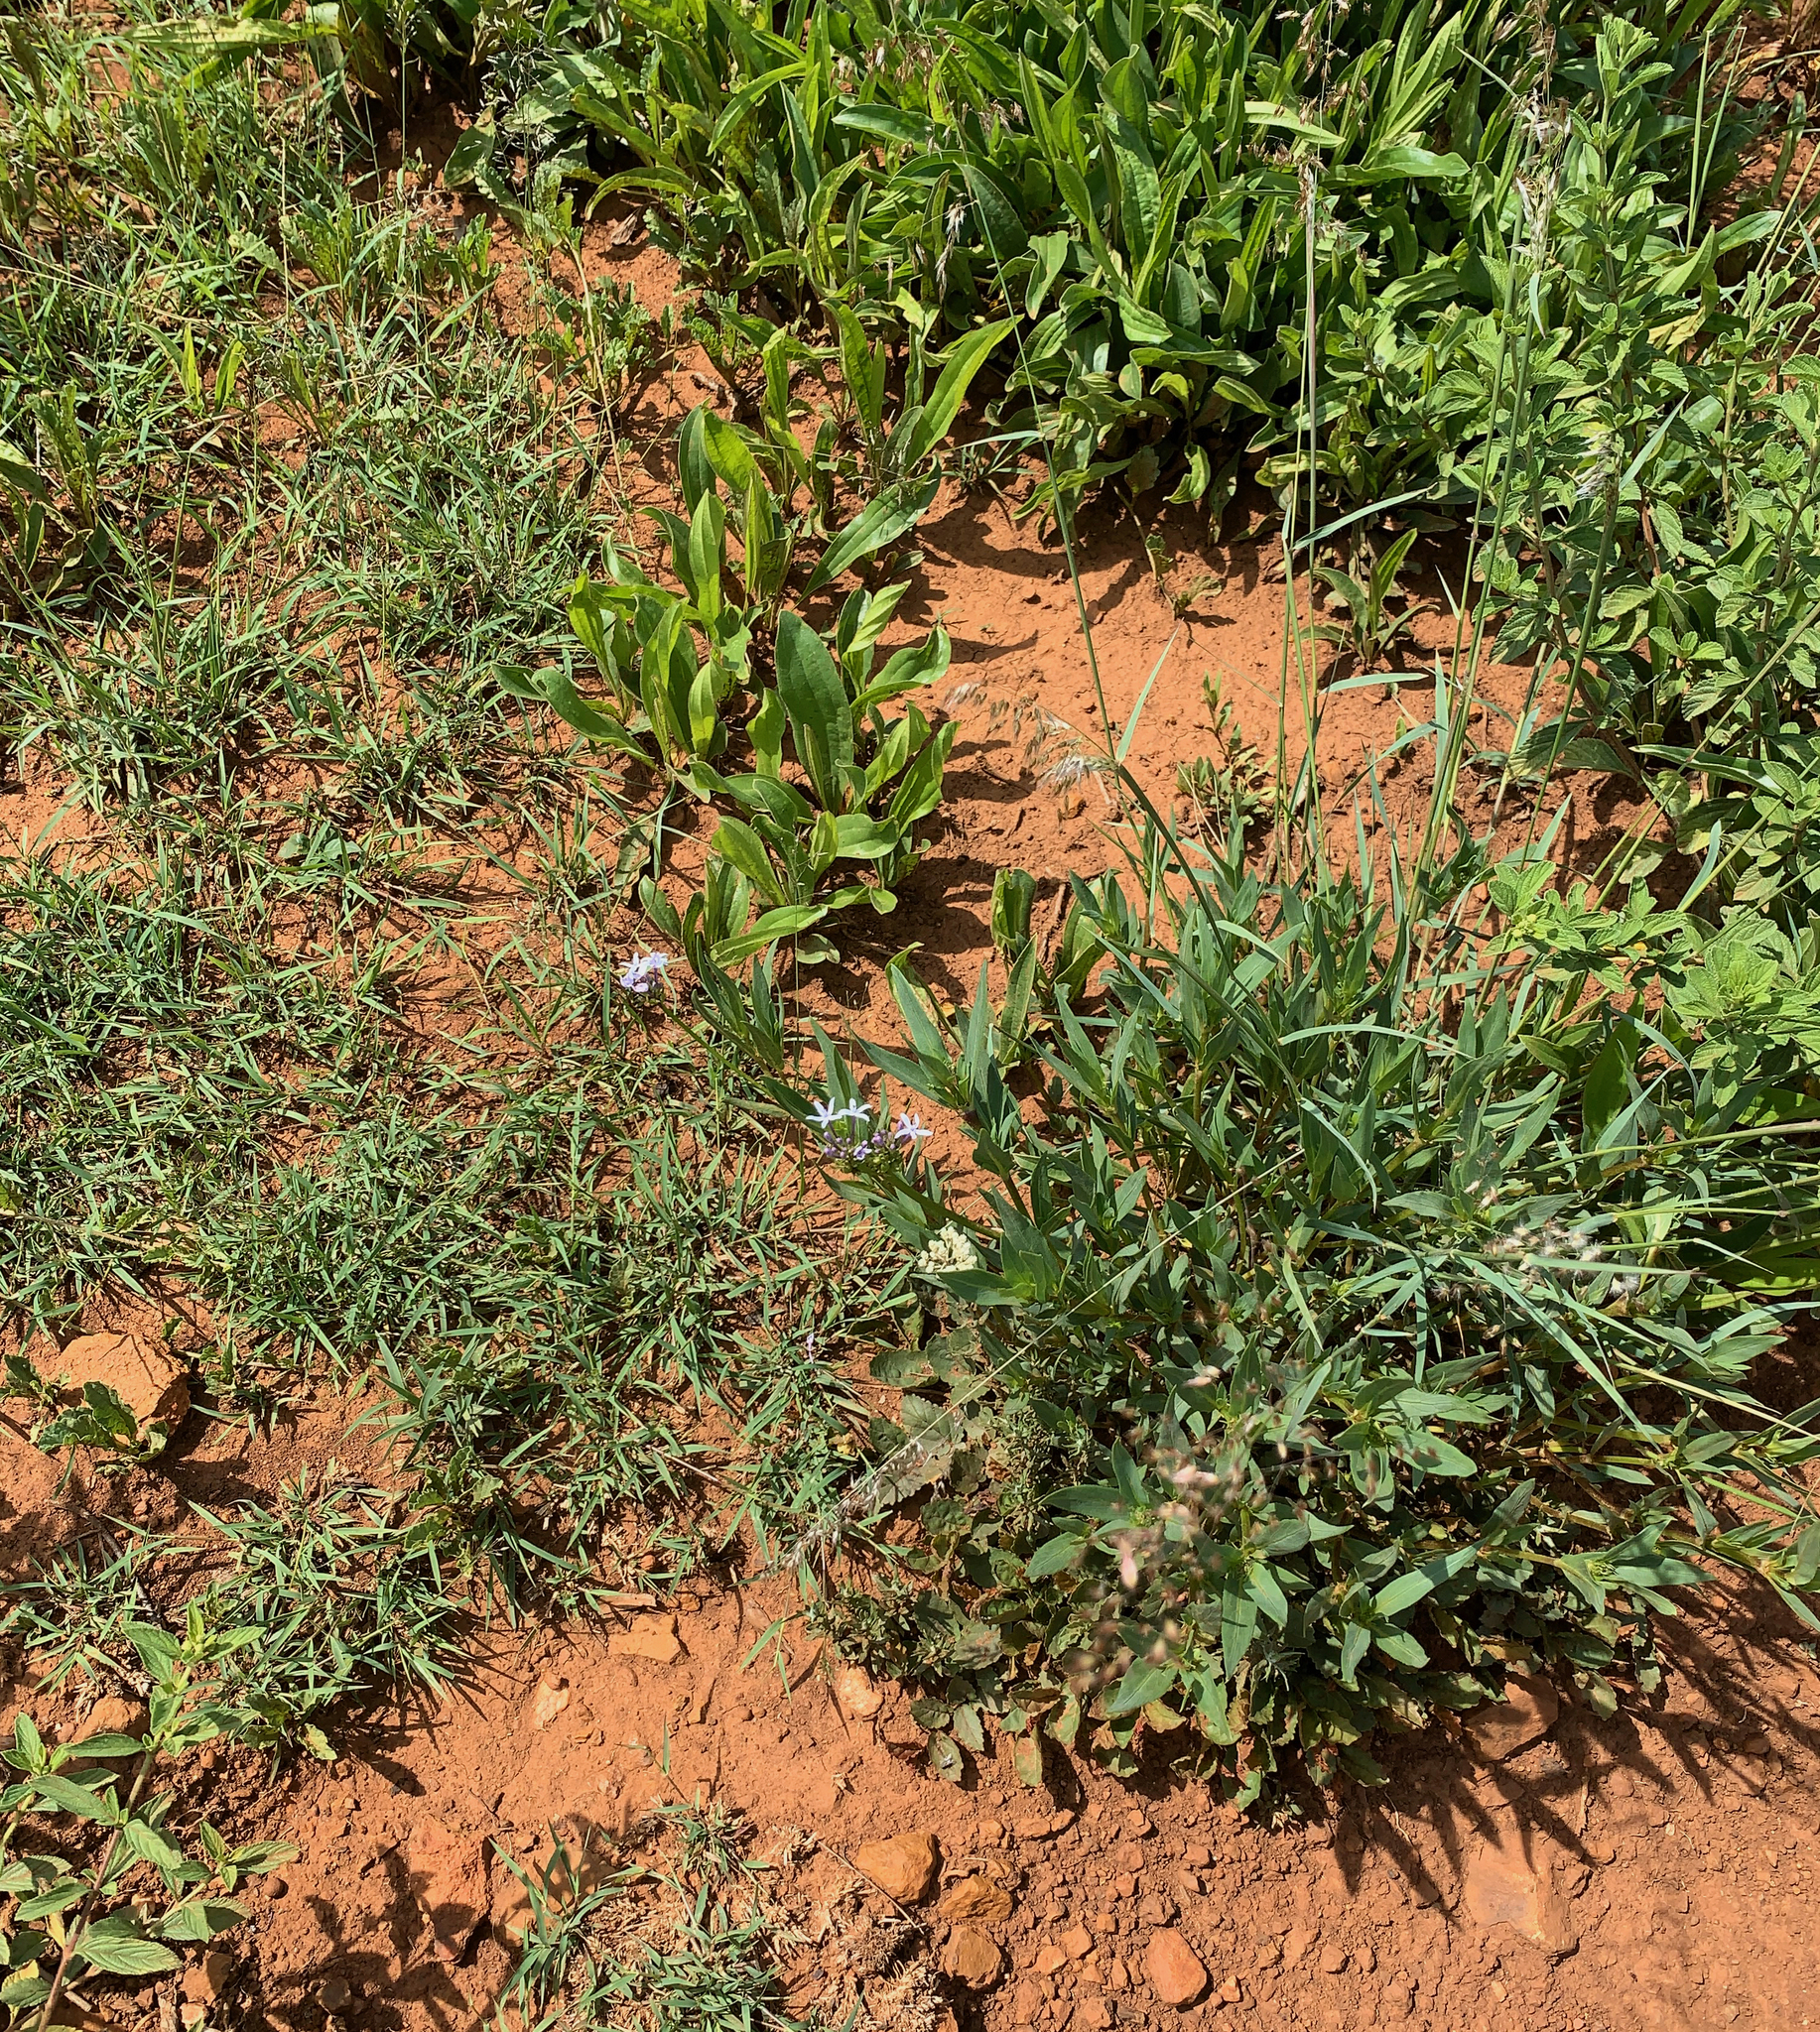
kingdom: Plantae
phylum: Tracheophyta
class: Magnoliopsida
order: Gentianales
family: Rubiaceae
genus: Pentanisia
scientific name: Pentanisia prunelloides
